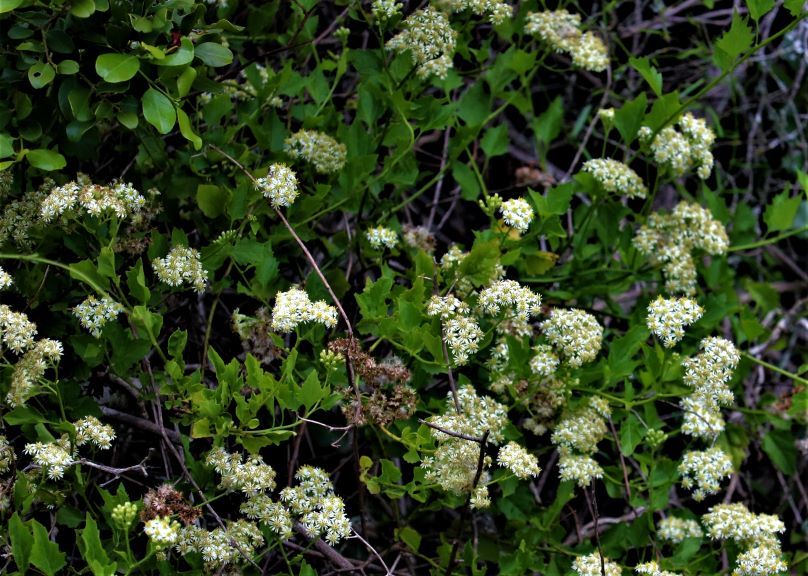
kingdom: Plantae
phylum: Tracheophyta
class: Magnoliopsida
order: Asterales
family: Asteraceae
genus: Microglossa
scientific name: Microglossa mespilifolia
